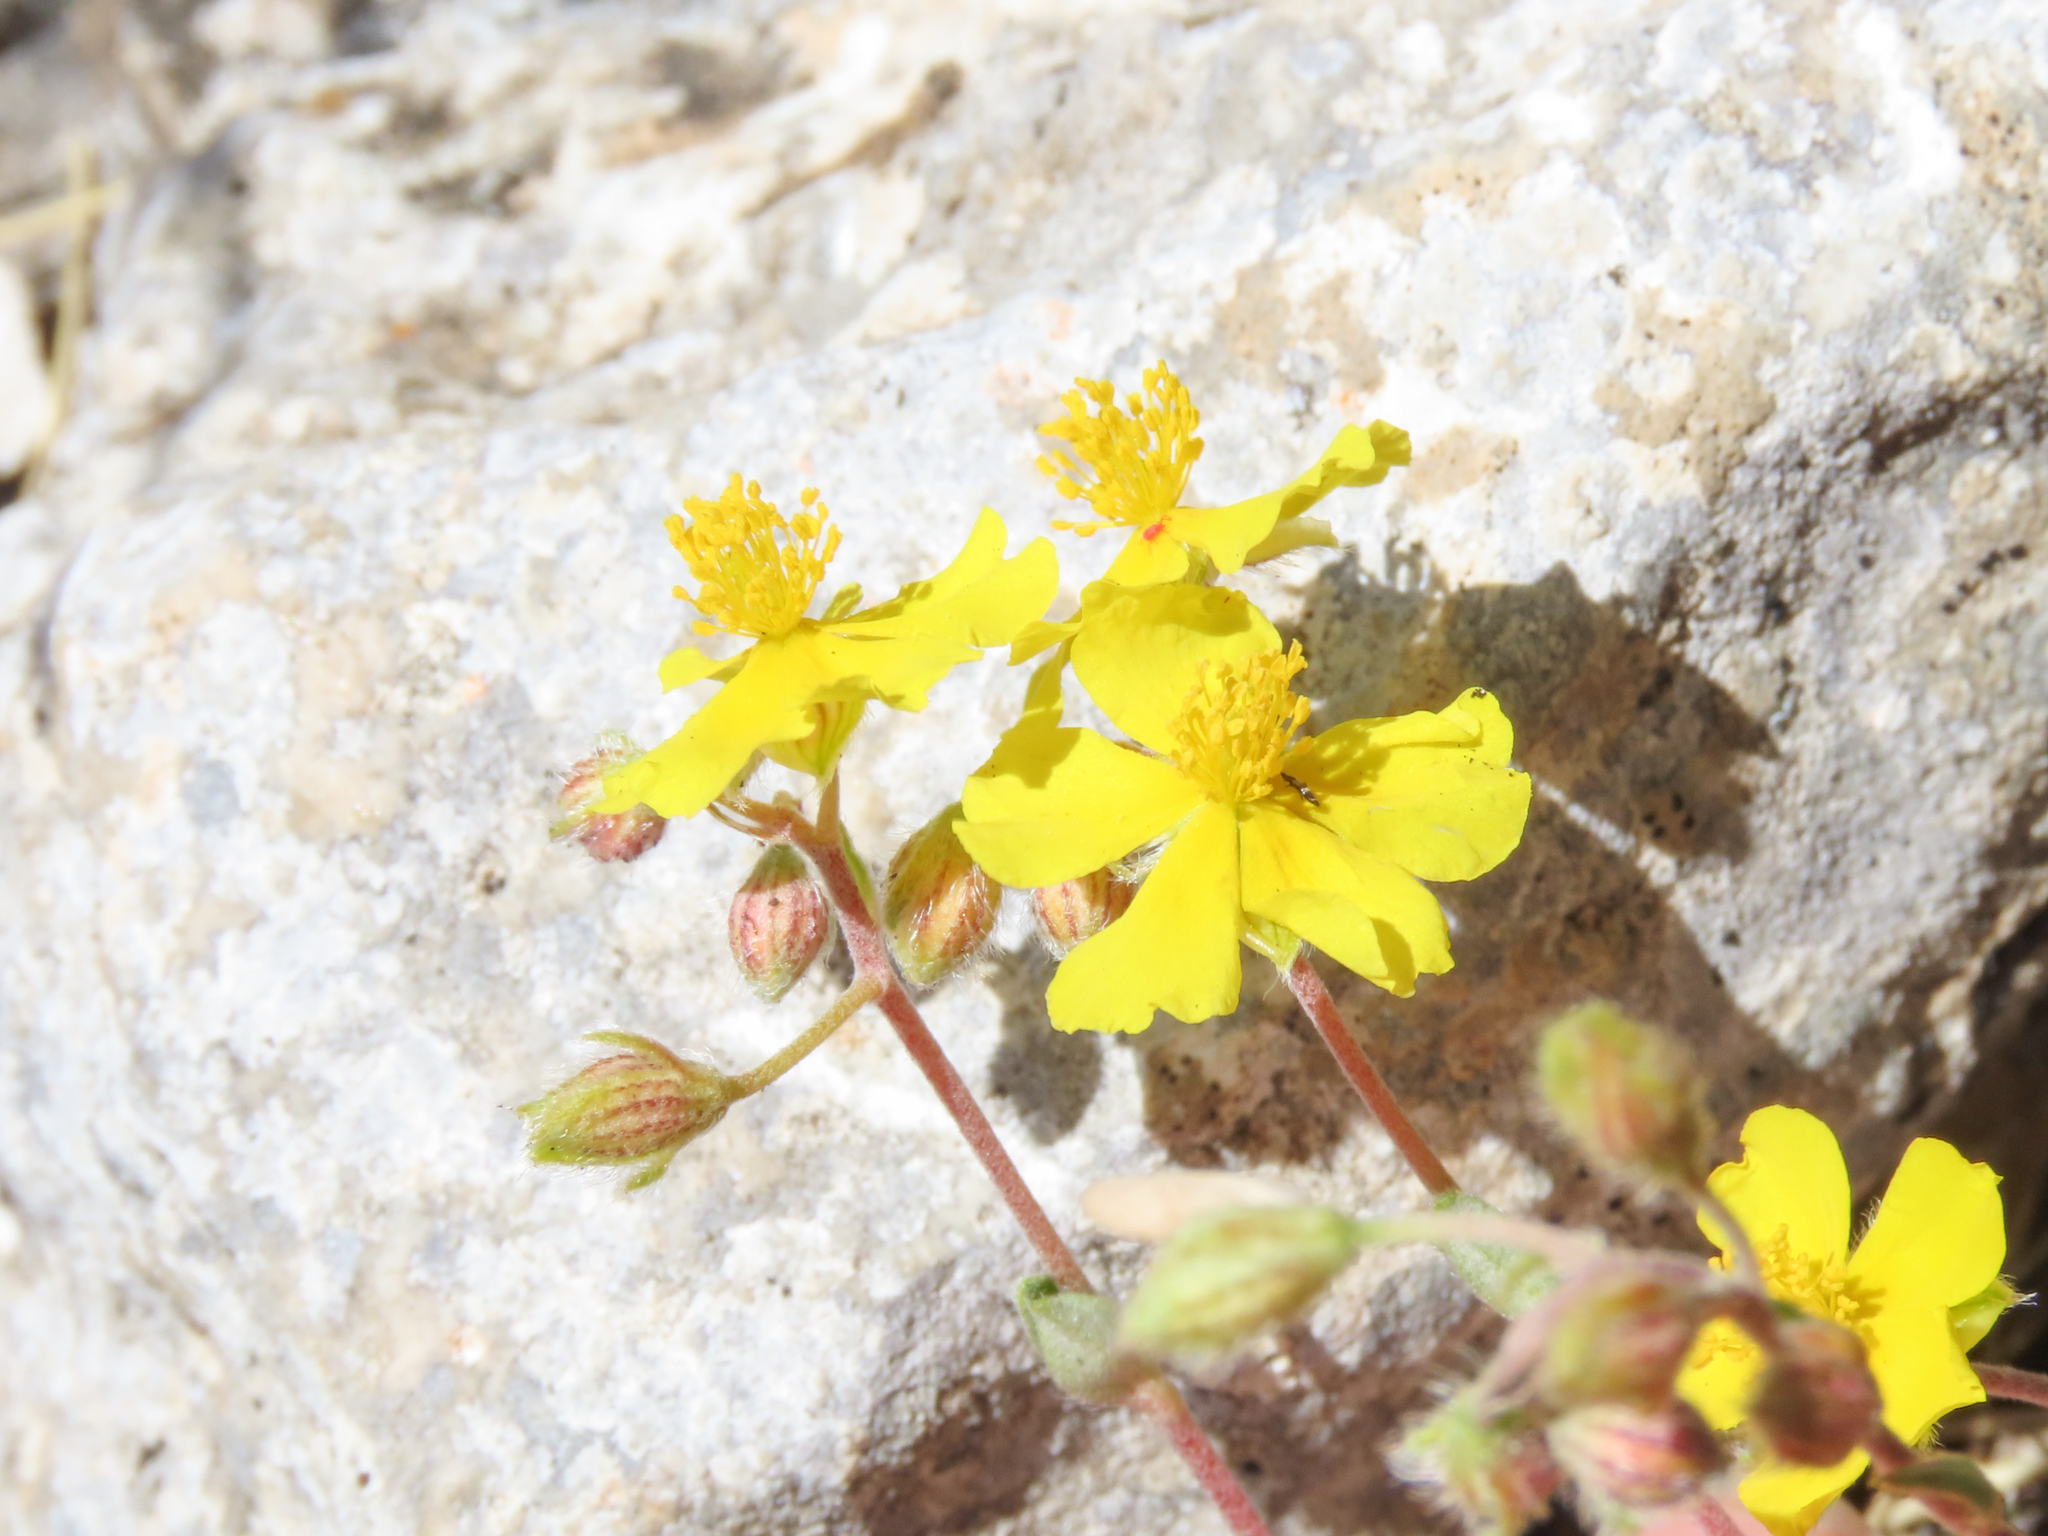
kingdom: Plantae
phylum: Tracheophyta
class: Magnoliopsida
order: Malvales
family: Cistaceae
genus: Helianthemum
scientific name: Helianthemum oelandicum
